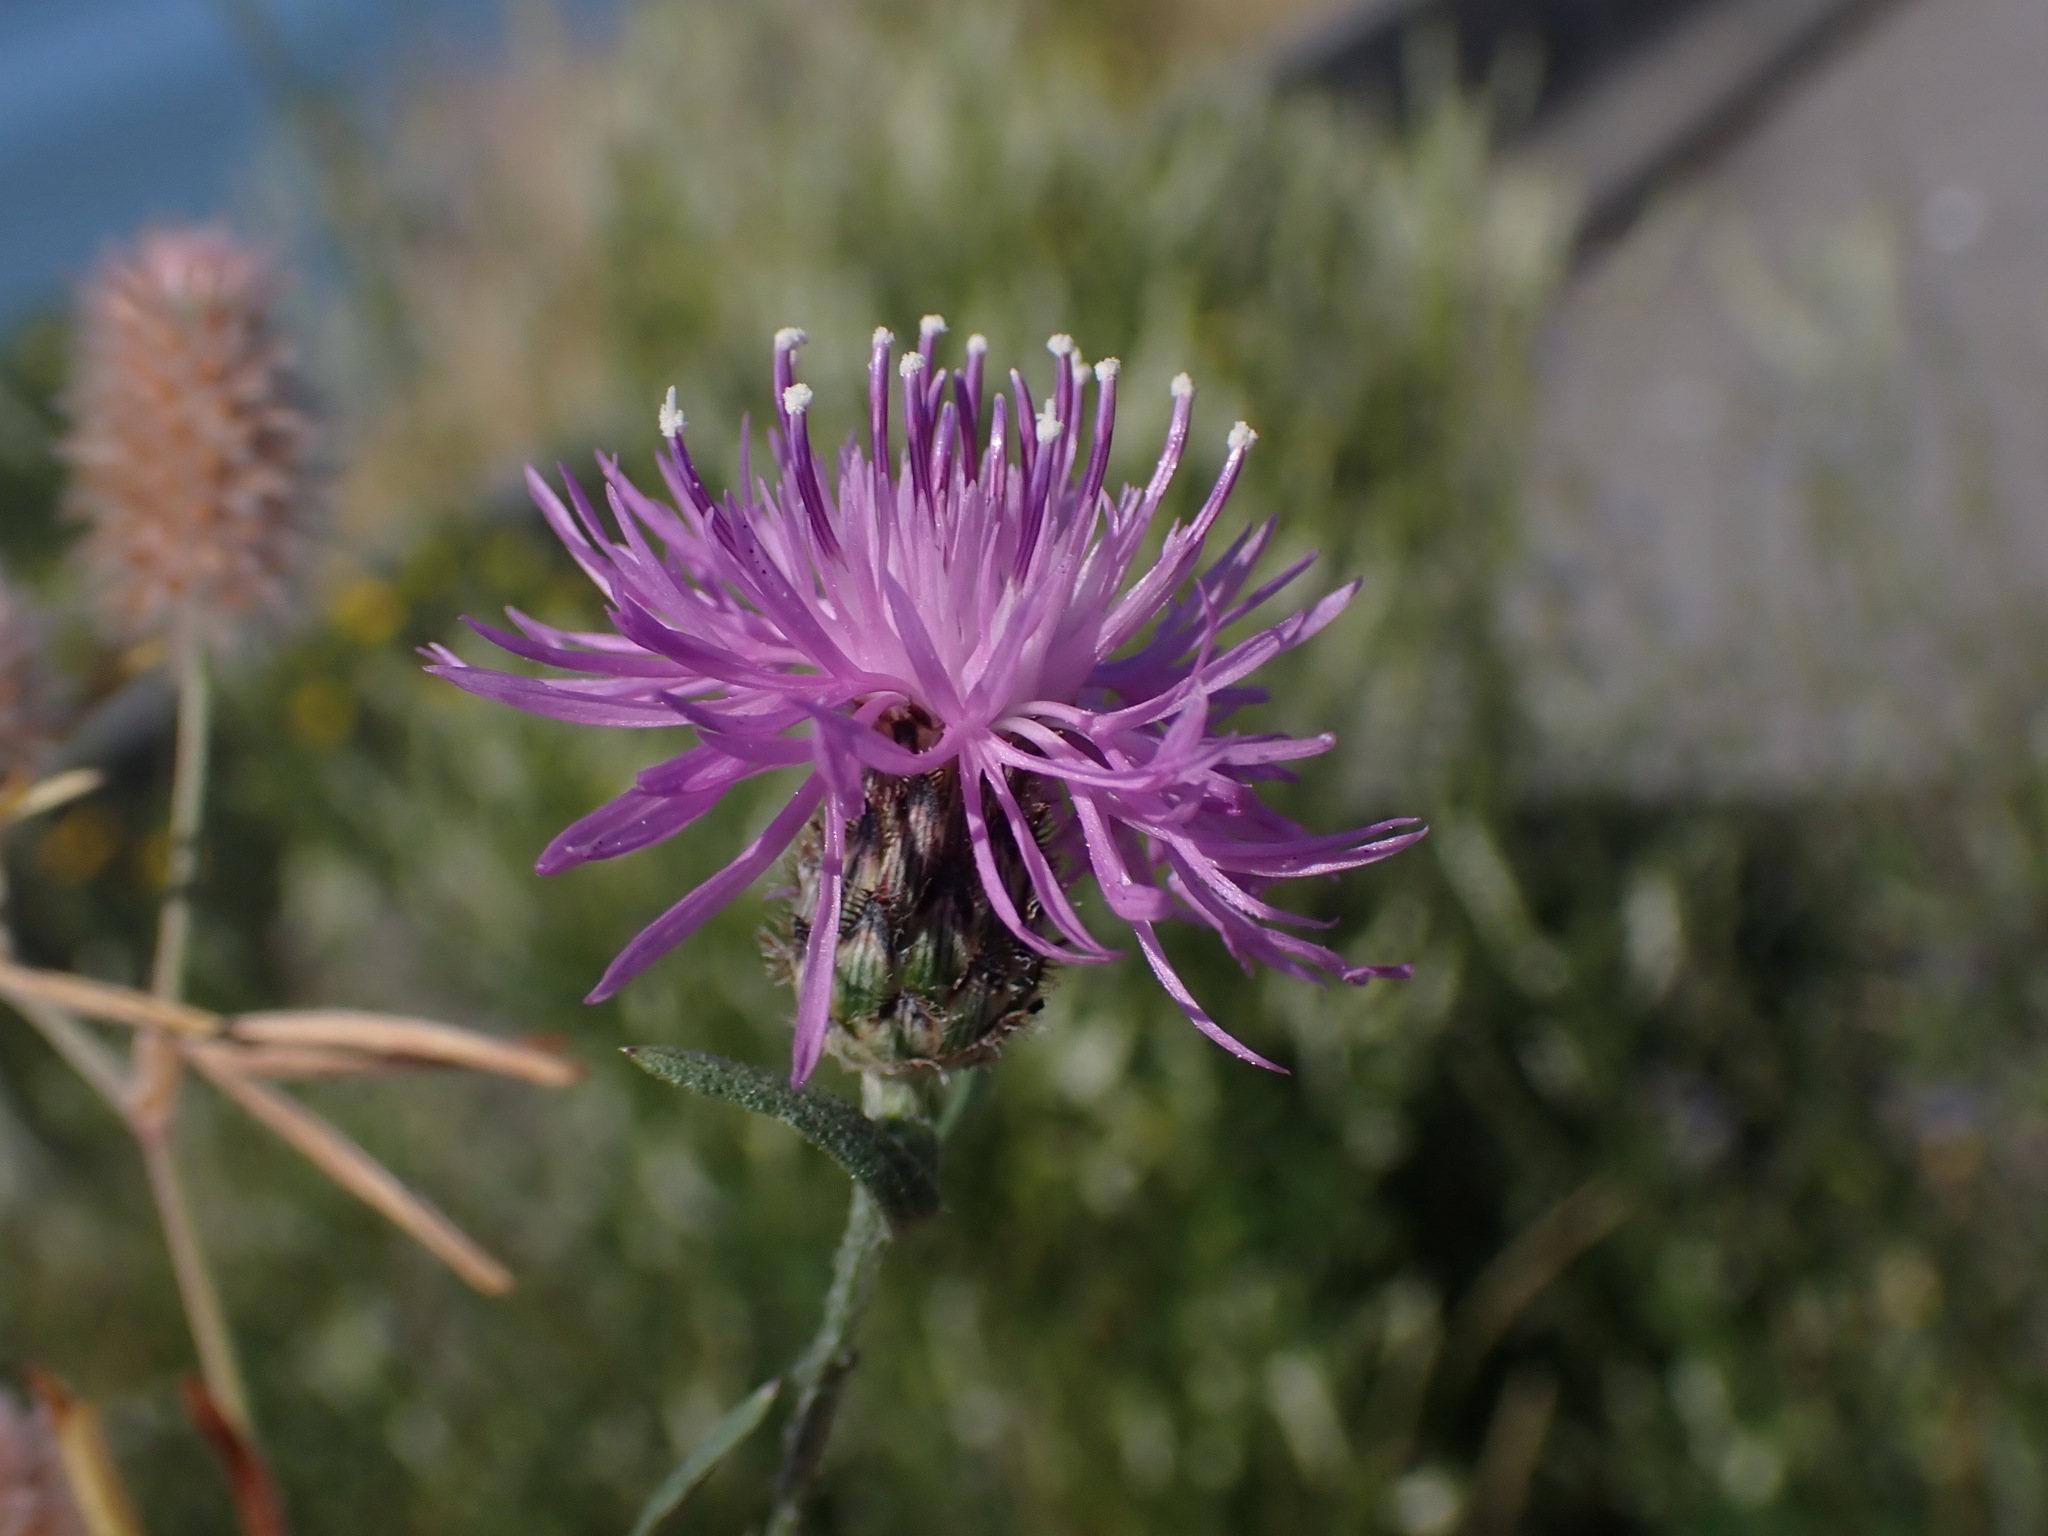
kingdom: Plantae
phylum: Tracheophyta
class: Magnoliopsida
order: Asterales
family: Asteraceae
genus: Centaurea
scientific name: Centaurea stoebe
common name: Spotted knapweed
